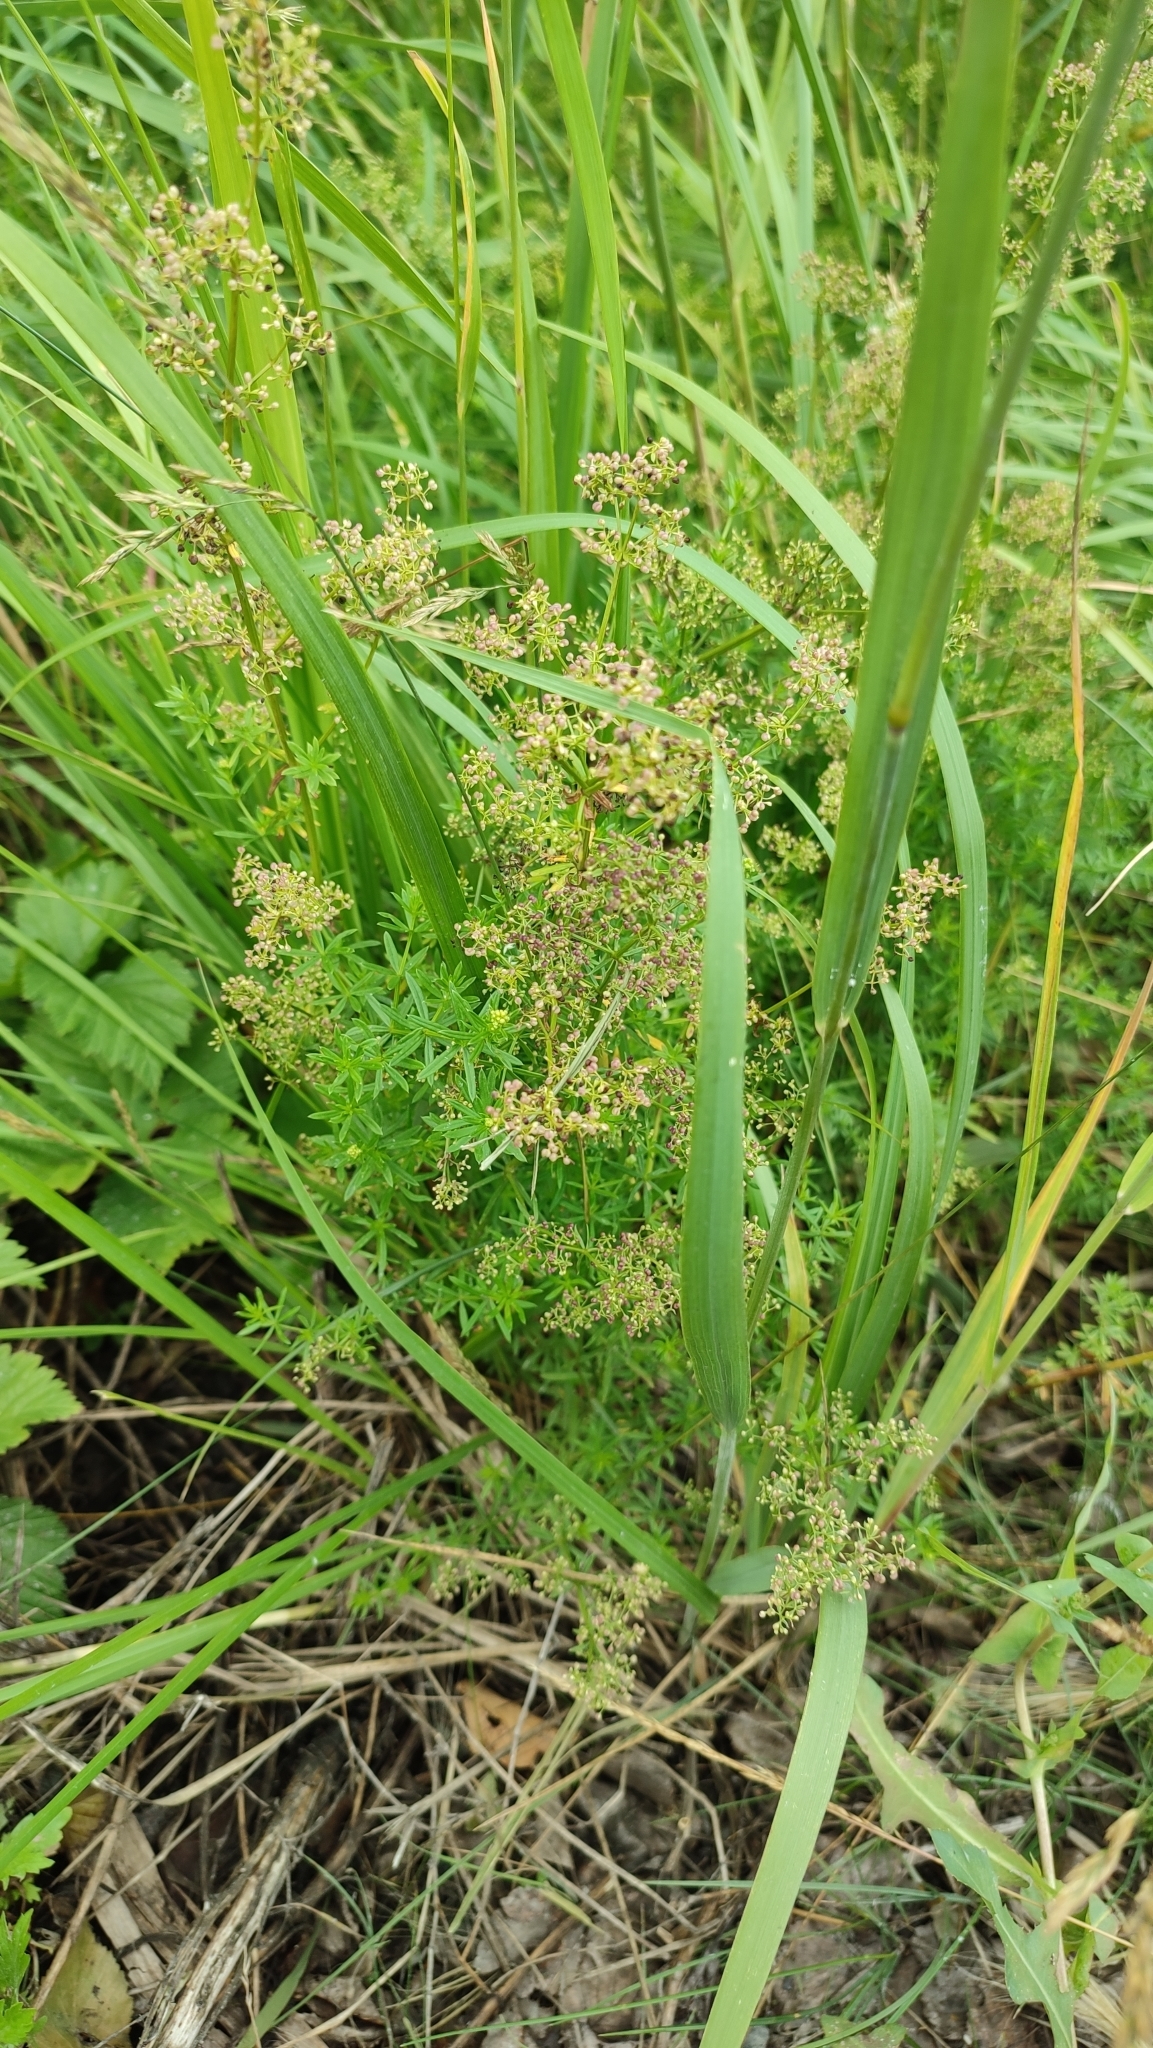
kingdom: Plantae
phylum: Tracheophyta
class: Magnoliopsida
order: Gentianales
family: Rubiaceae
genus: Galium
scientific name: Galium mollugo
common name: Hedge bedstraw
